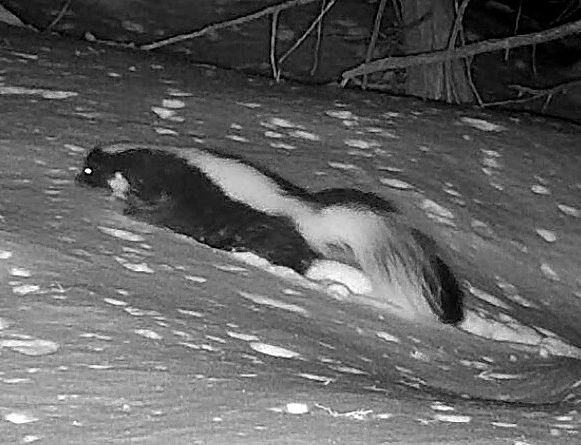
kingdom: Animalia
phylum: Chordata
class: Mammalia
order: Carnivora
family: Mephitidae
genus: Mephitis
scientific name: Mephitis mephitis
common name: Striped skunk
